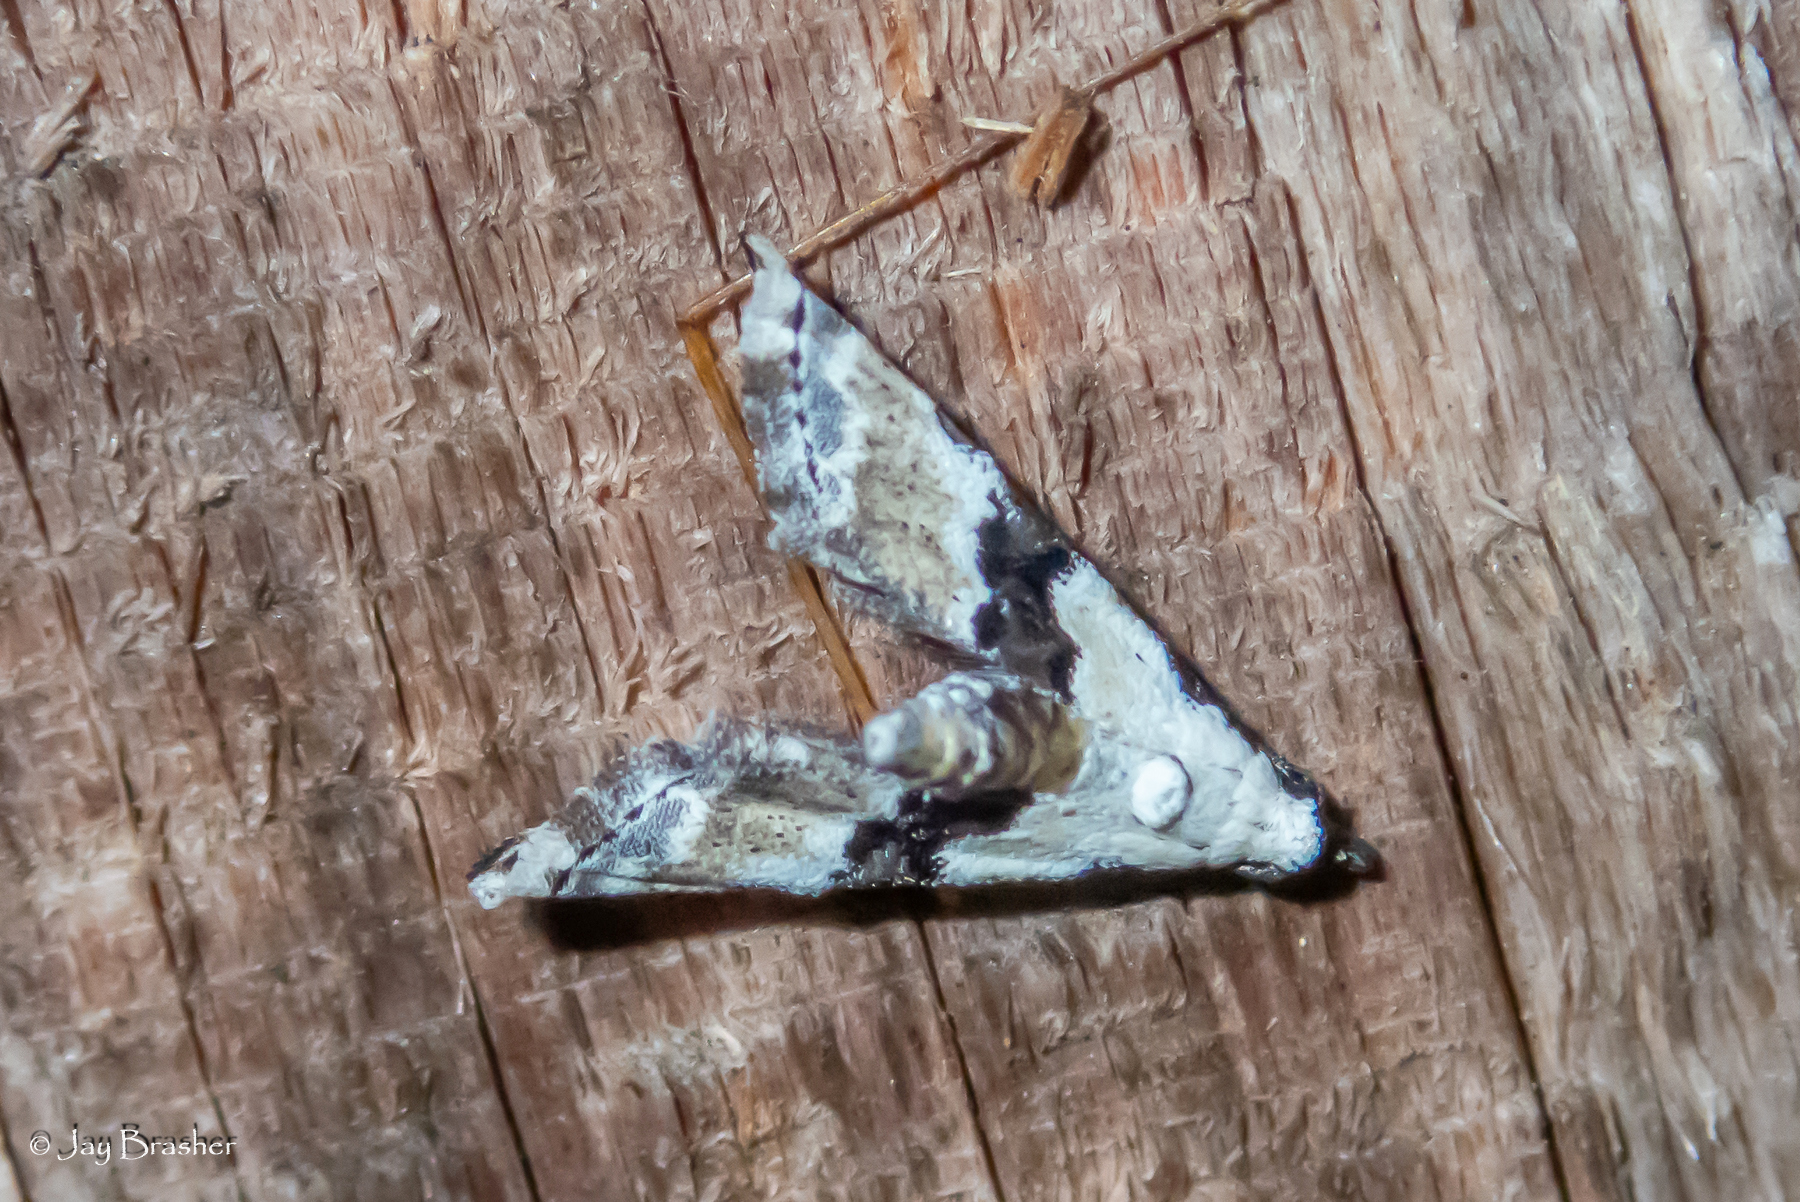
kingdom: Animalia
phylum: Arthropoda
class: Insecta
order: Lepidoptera
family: Noctuidae
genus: Nigetia
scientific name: Nigetia formosalis
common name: Thin-winged owlet
